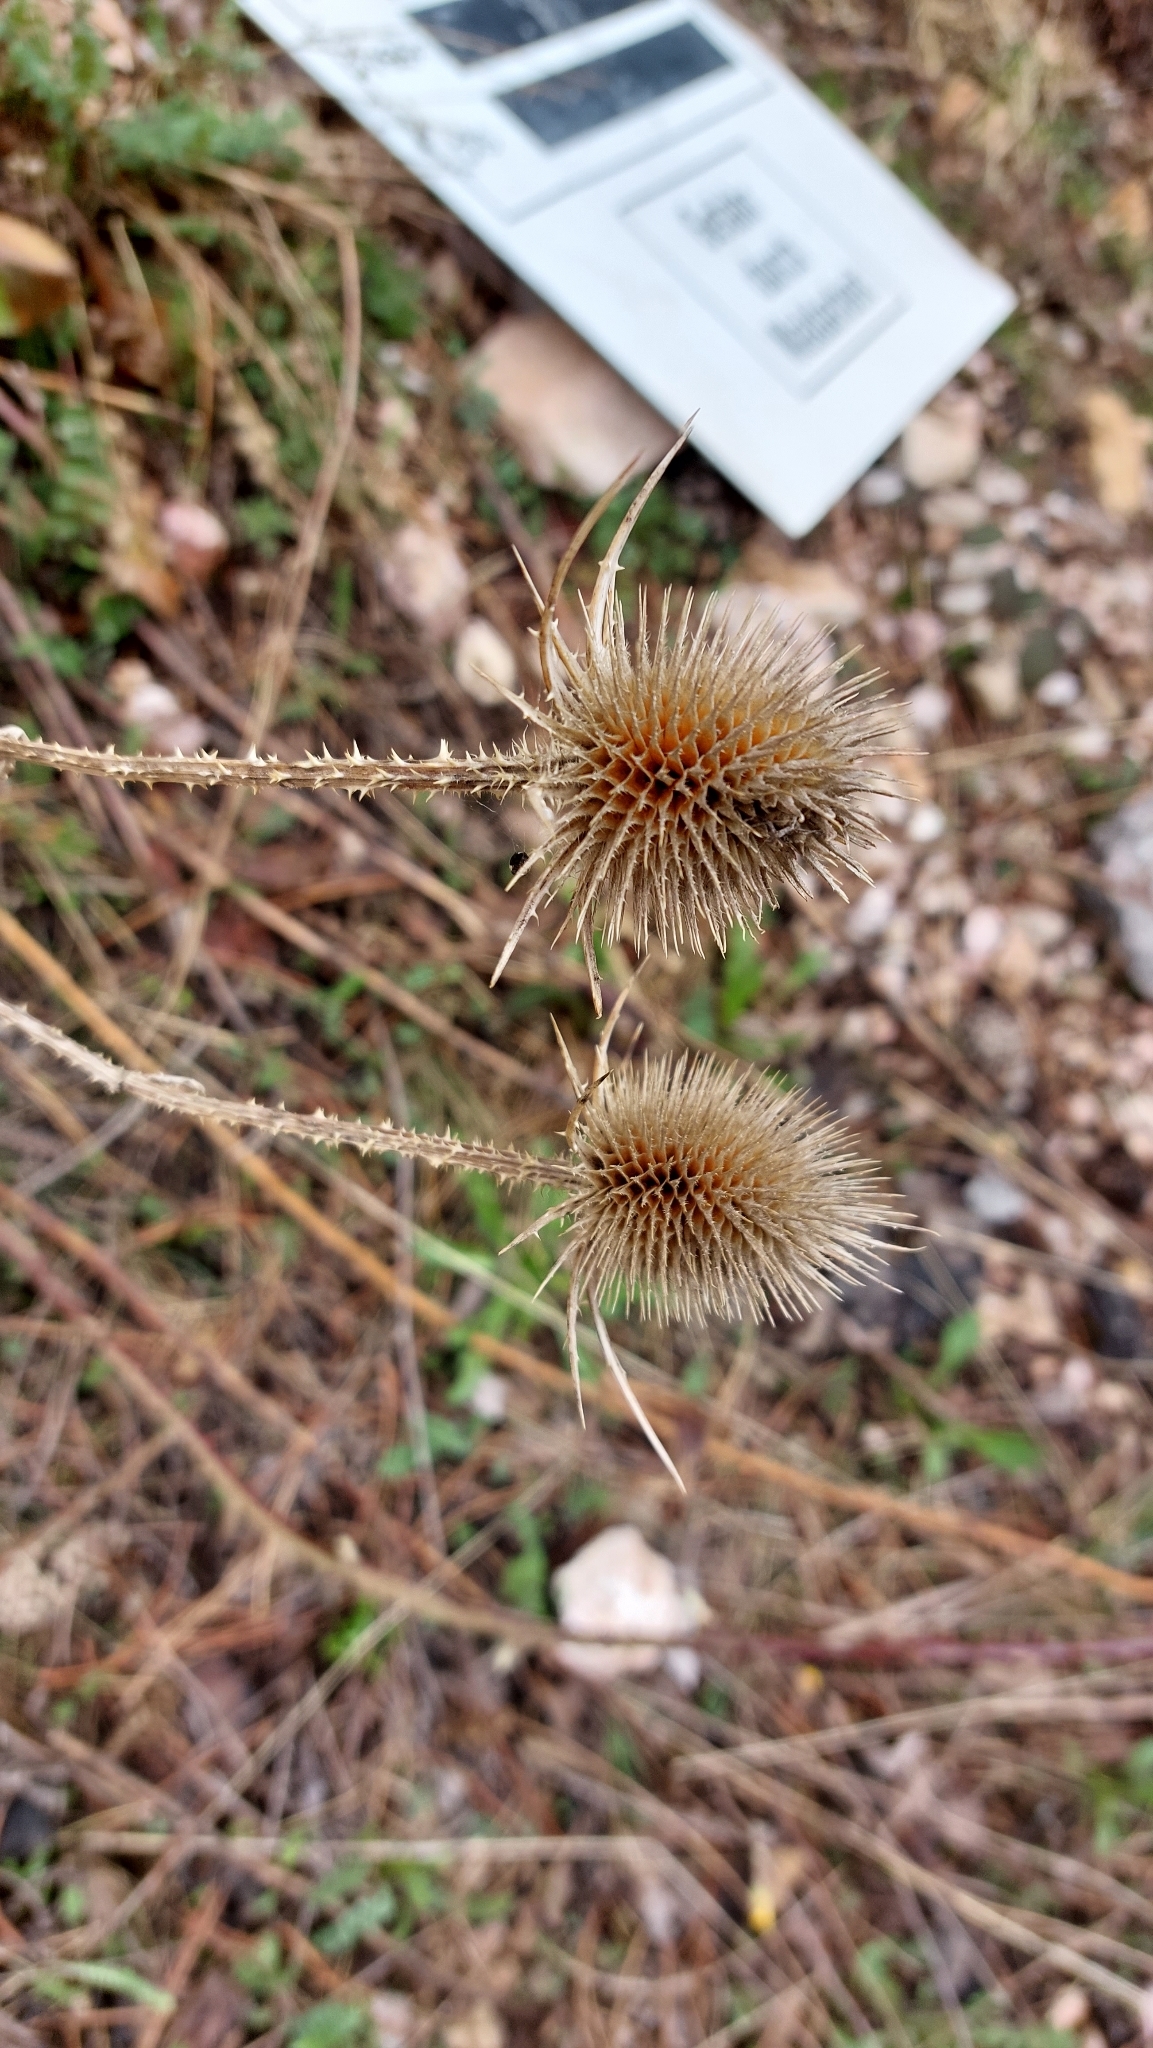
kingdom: Plantae
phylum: Tracheophyta
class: Magnoliopsida
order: Dipsacales
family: Caprifoliaceae
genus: Dipsacus
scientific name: Dipsacus fullonum
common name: Teasel
